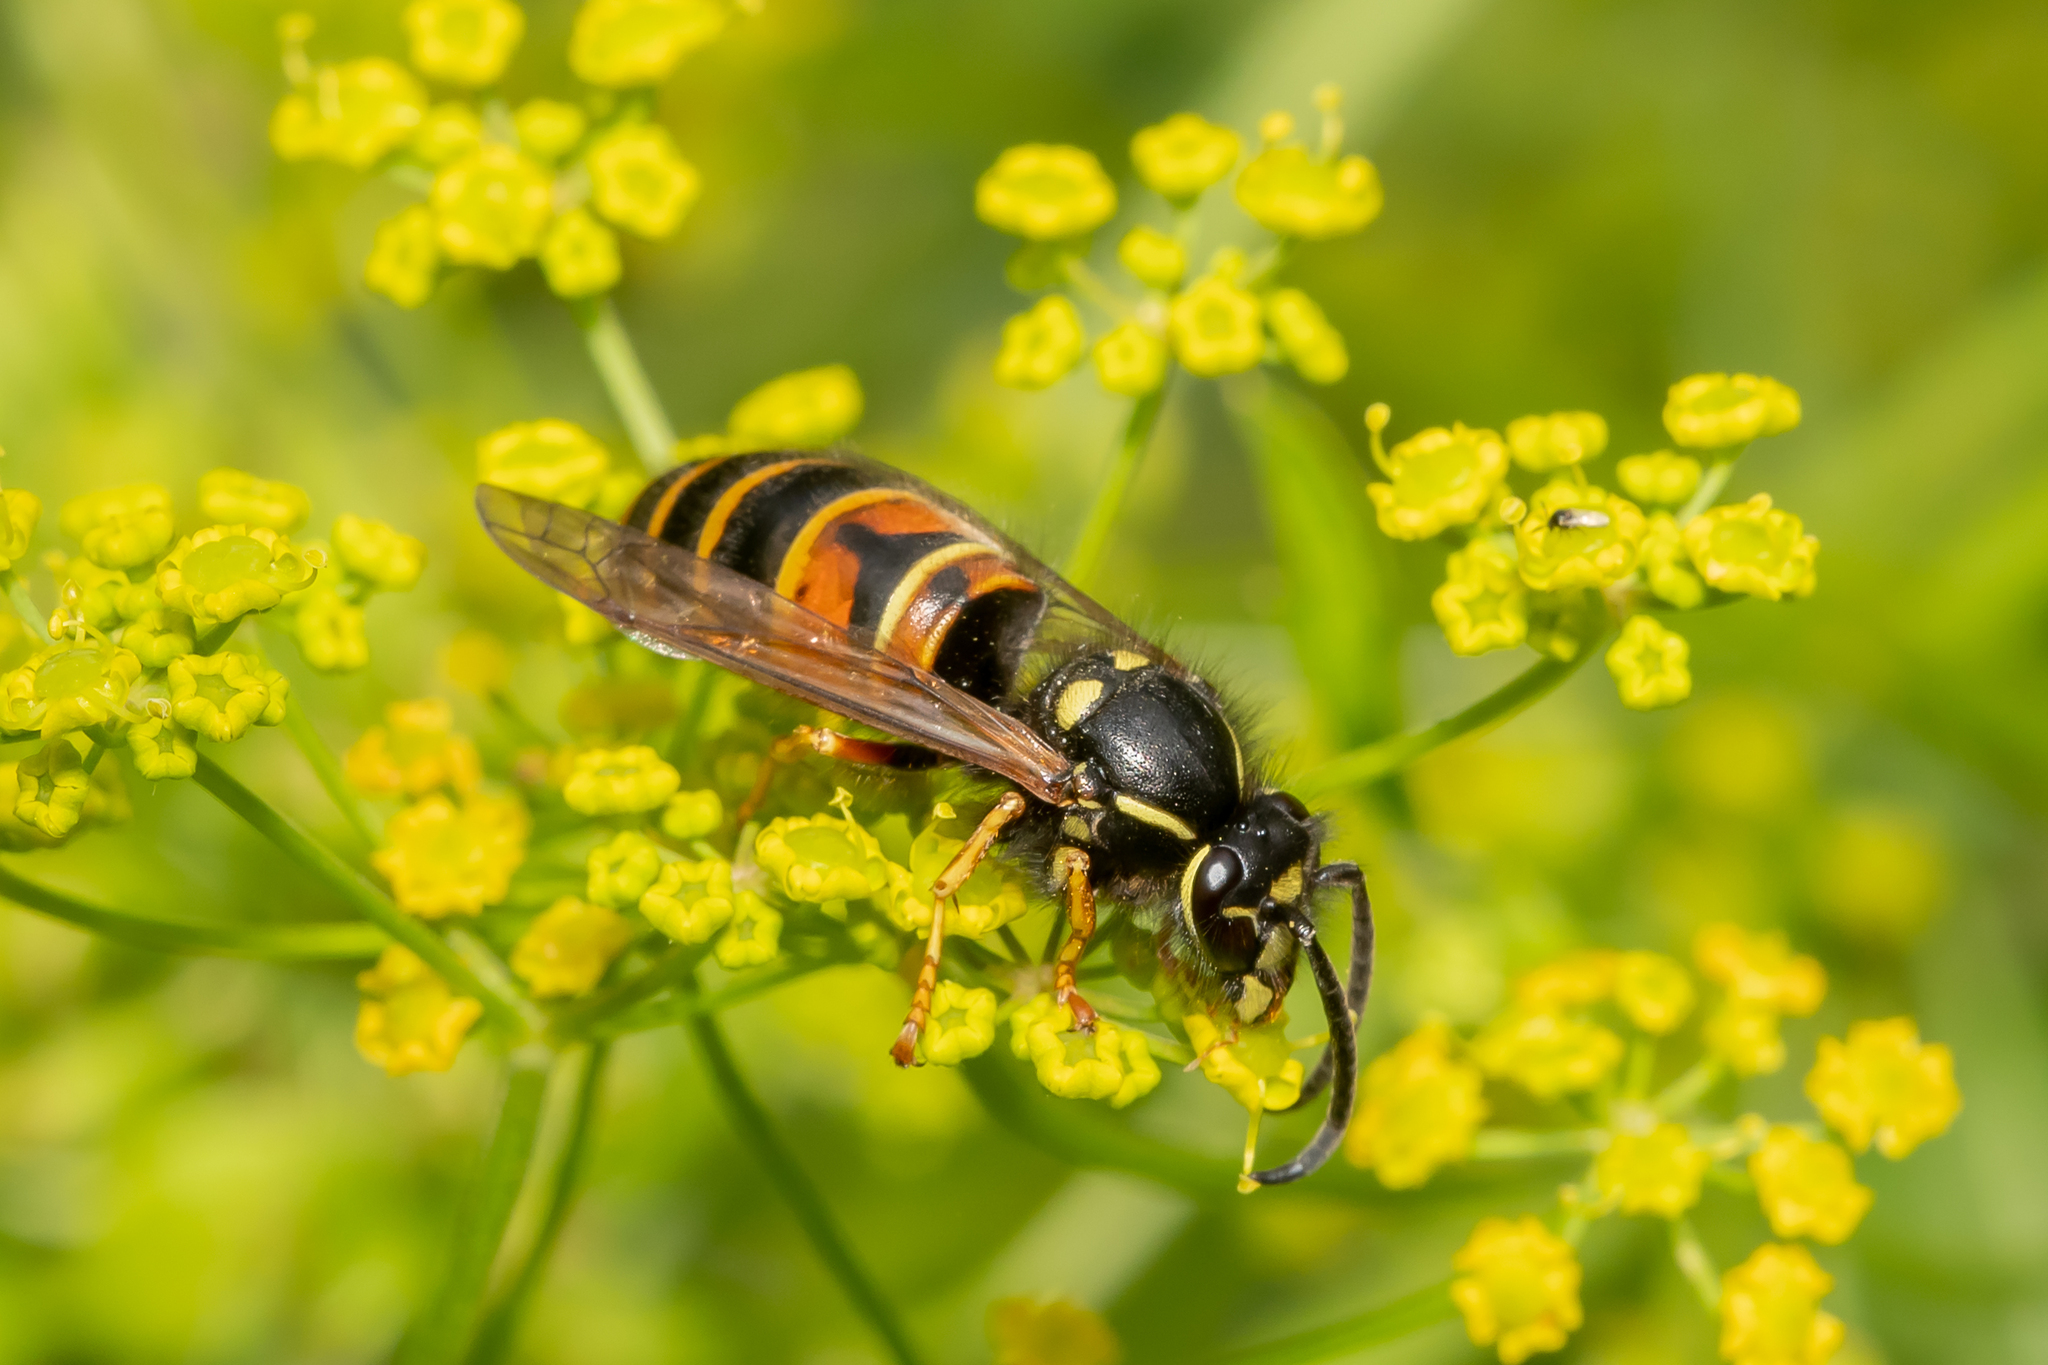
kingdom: Animalia
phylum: Arthropoda
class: Insecta
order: Hymenoptera
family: Vespidae
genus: Vespula
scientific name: Vespula rufa
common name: Red wasp
